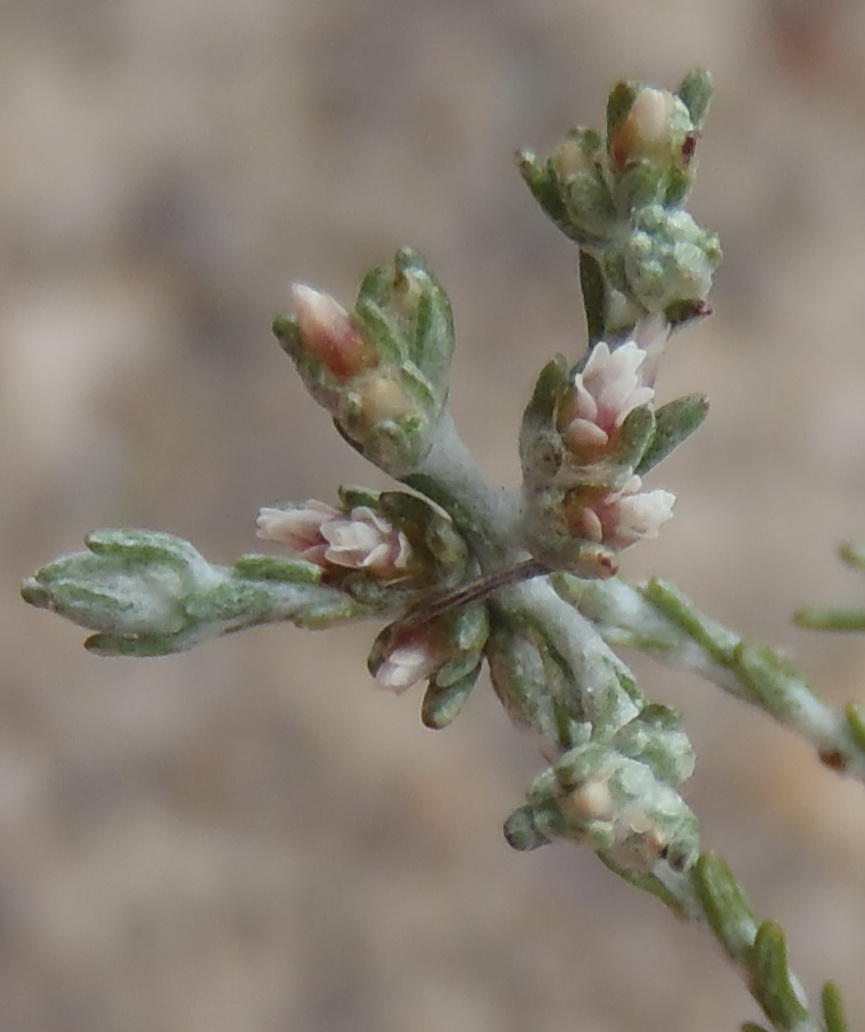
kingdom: Plantae
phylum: Tracheophyta
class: Magnoliopsida
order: Asterales
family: Asteraceae
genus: Helichrysum
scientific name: Helichrysum asperum
